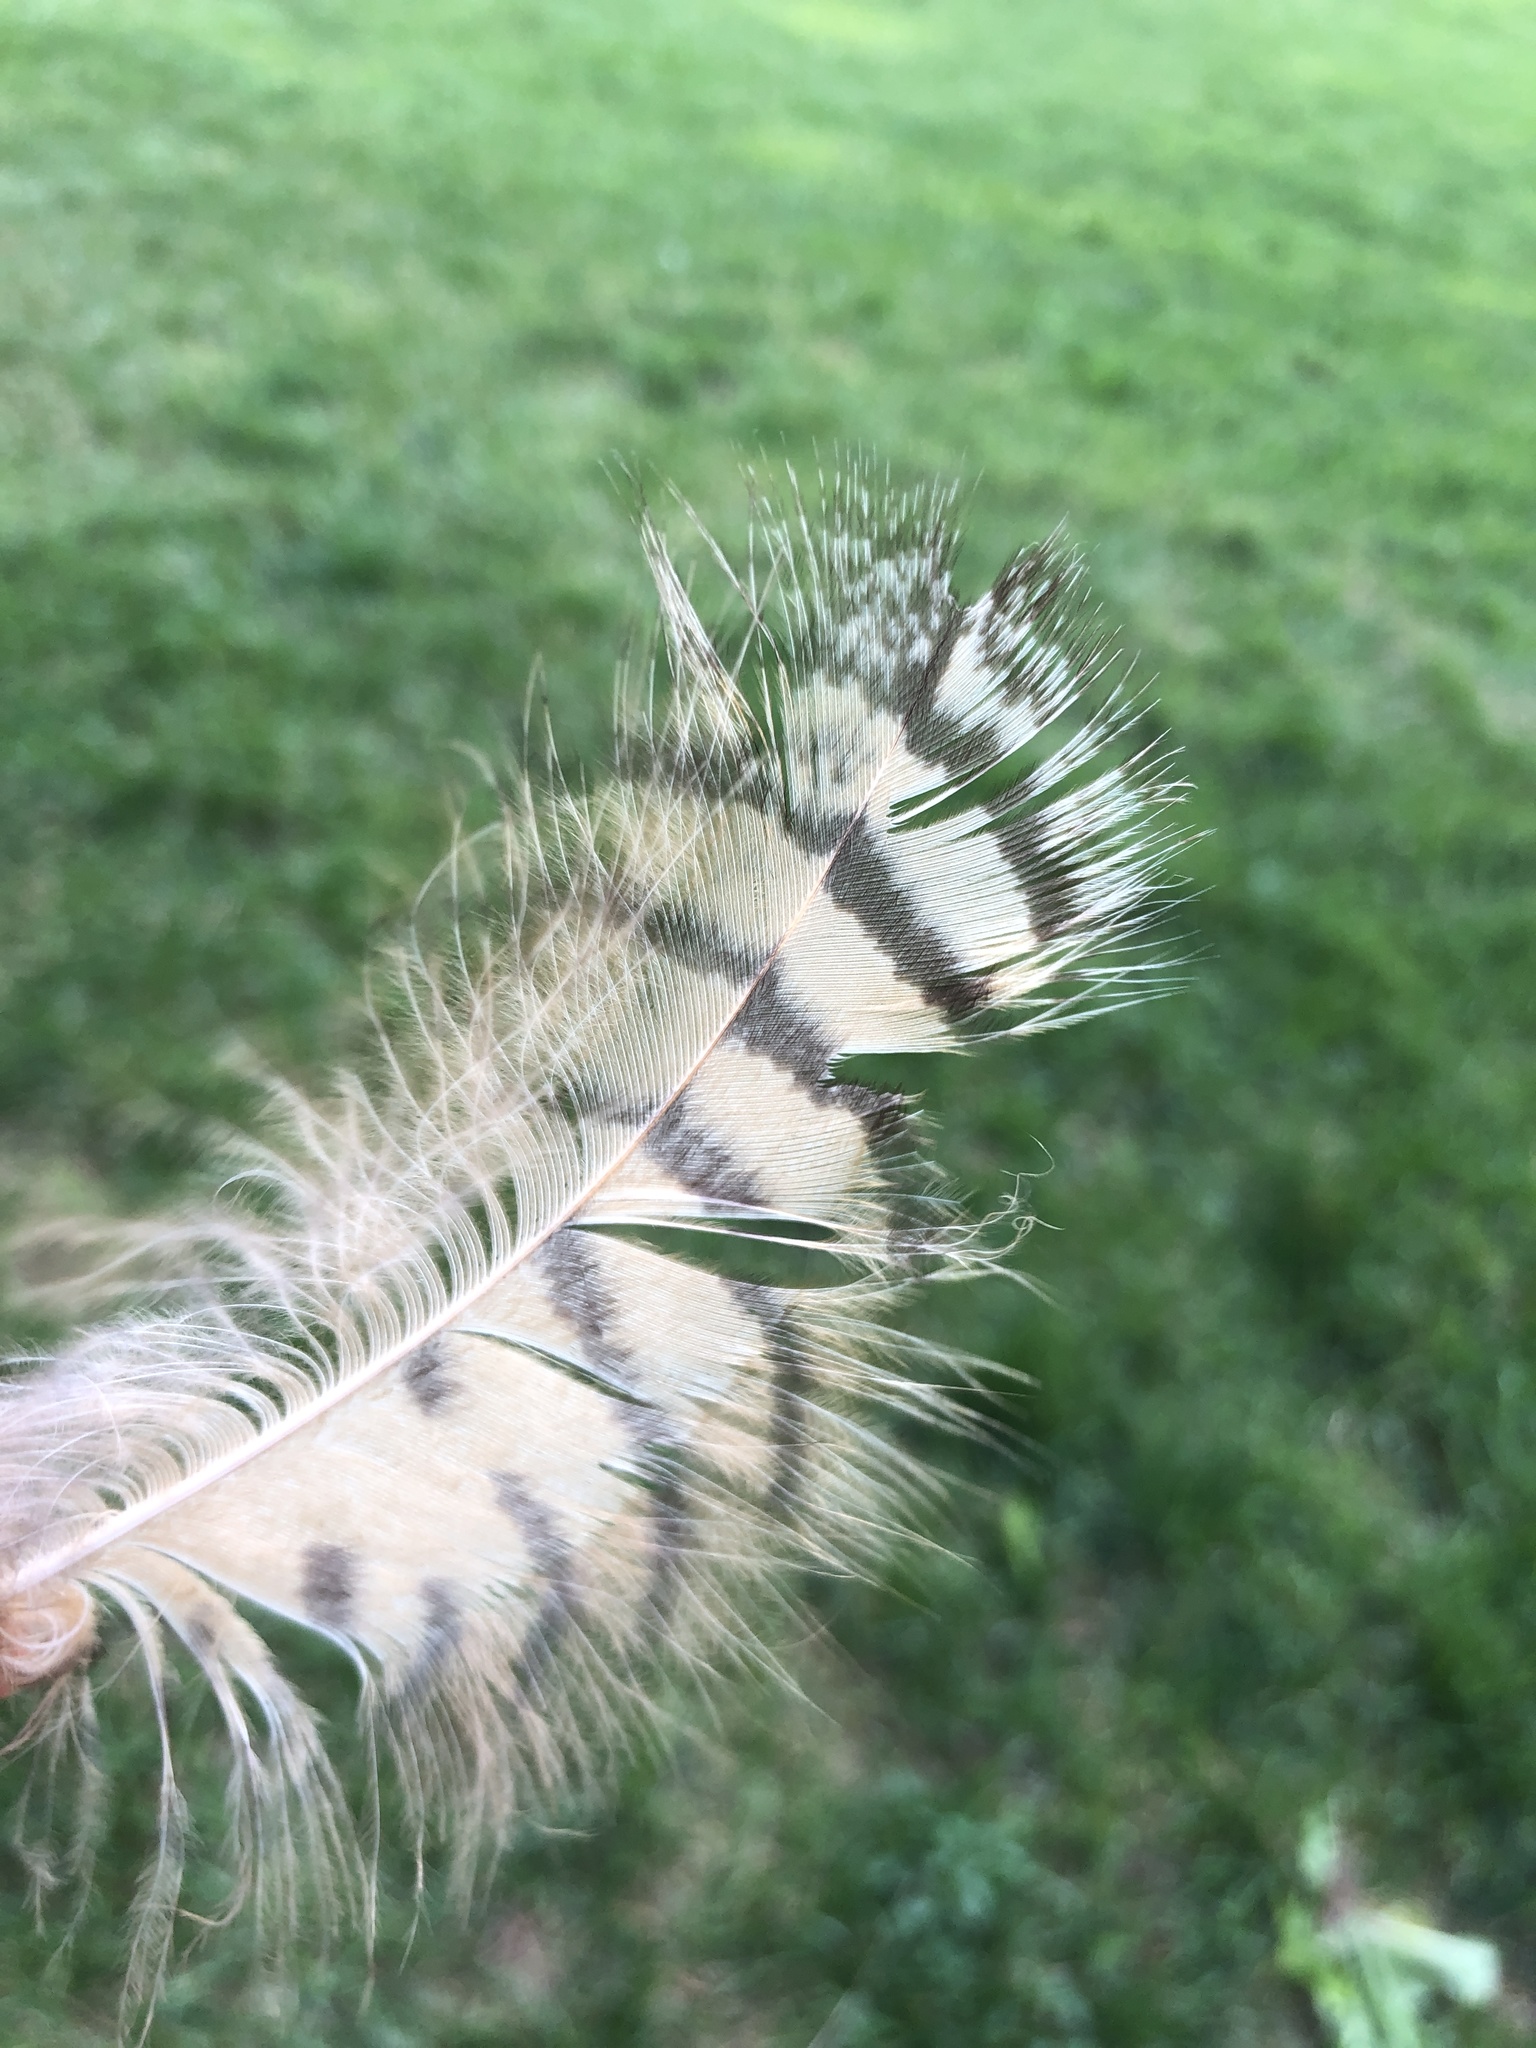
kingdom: Animalia
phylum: Chordata
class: Aves
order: Strigiformes
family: Strigidae
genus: Bubo
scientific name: Bubo virginianus
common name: Great horned owl
